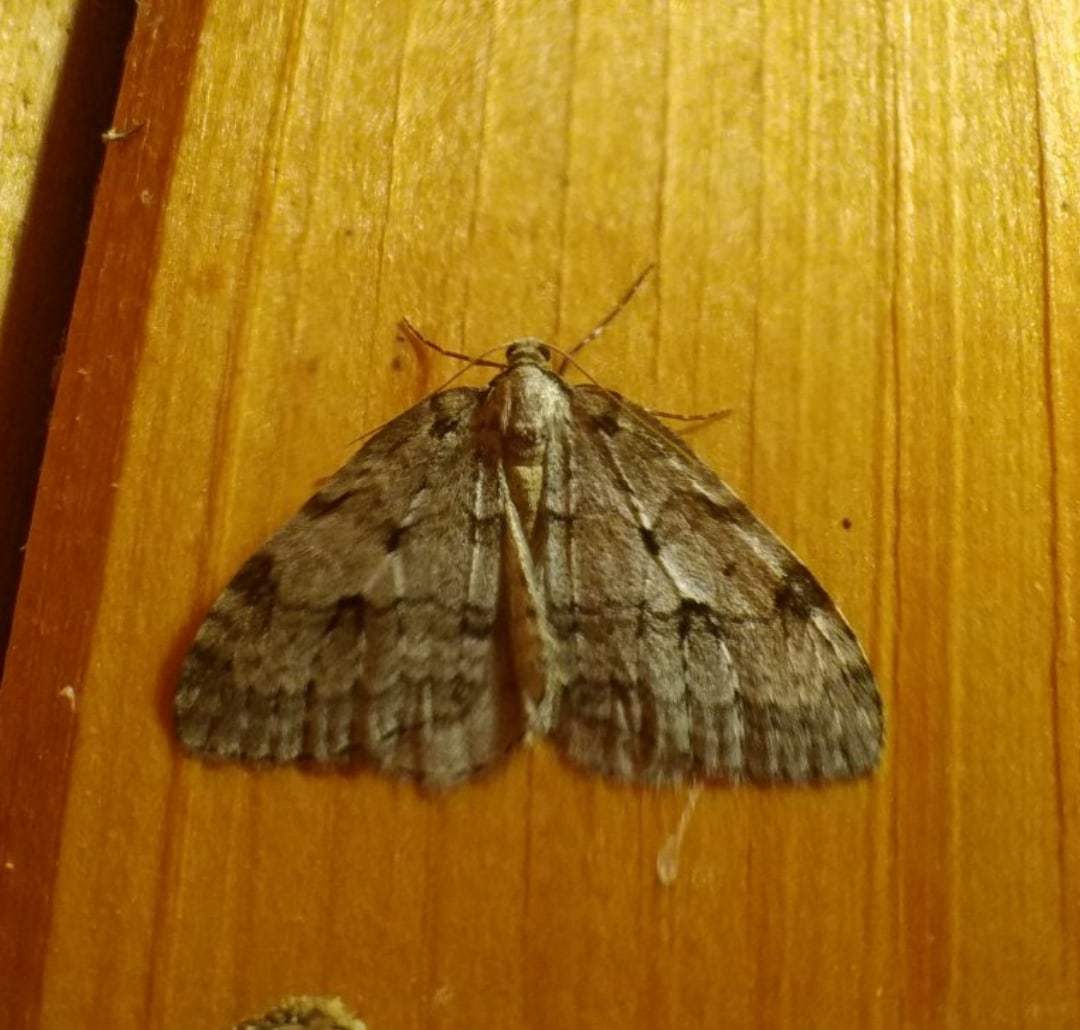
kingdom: Animalia
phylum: Arthropoda
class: Insecta
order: Lepidoptera
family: Geometridae
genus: Epirrita
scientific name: Epirrita autumnata
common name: Autumnal moth
